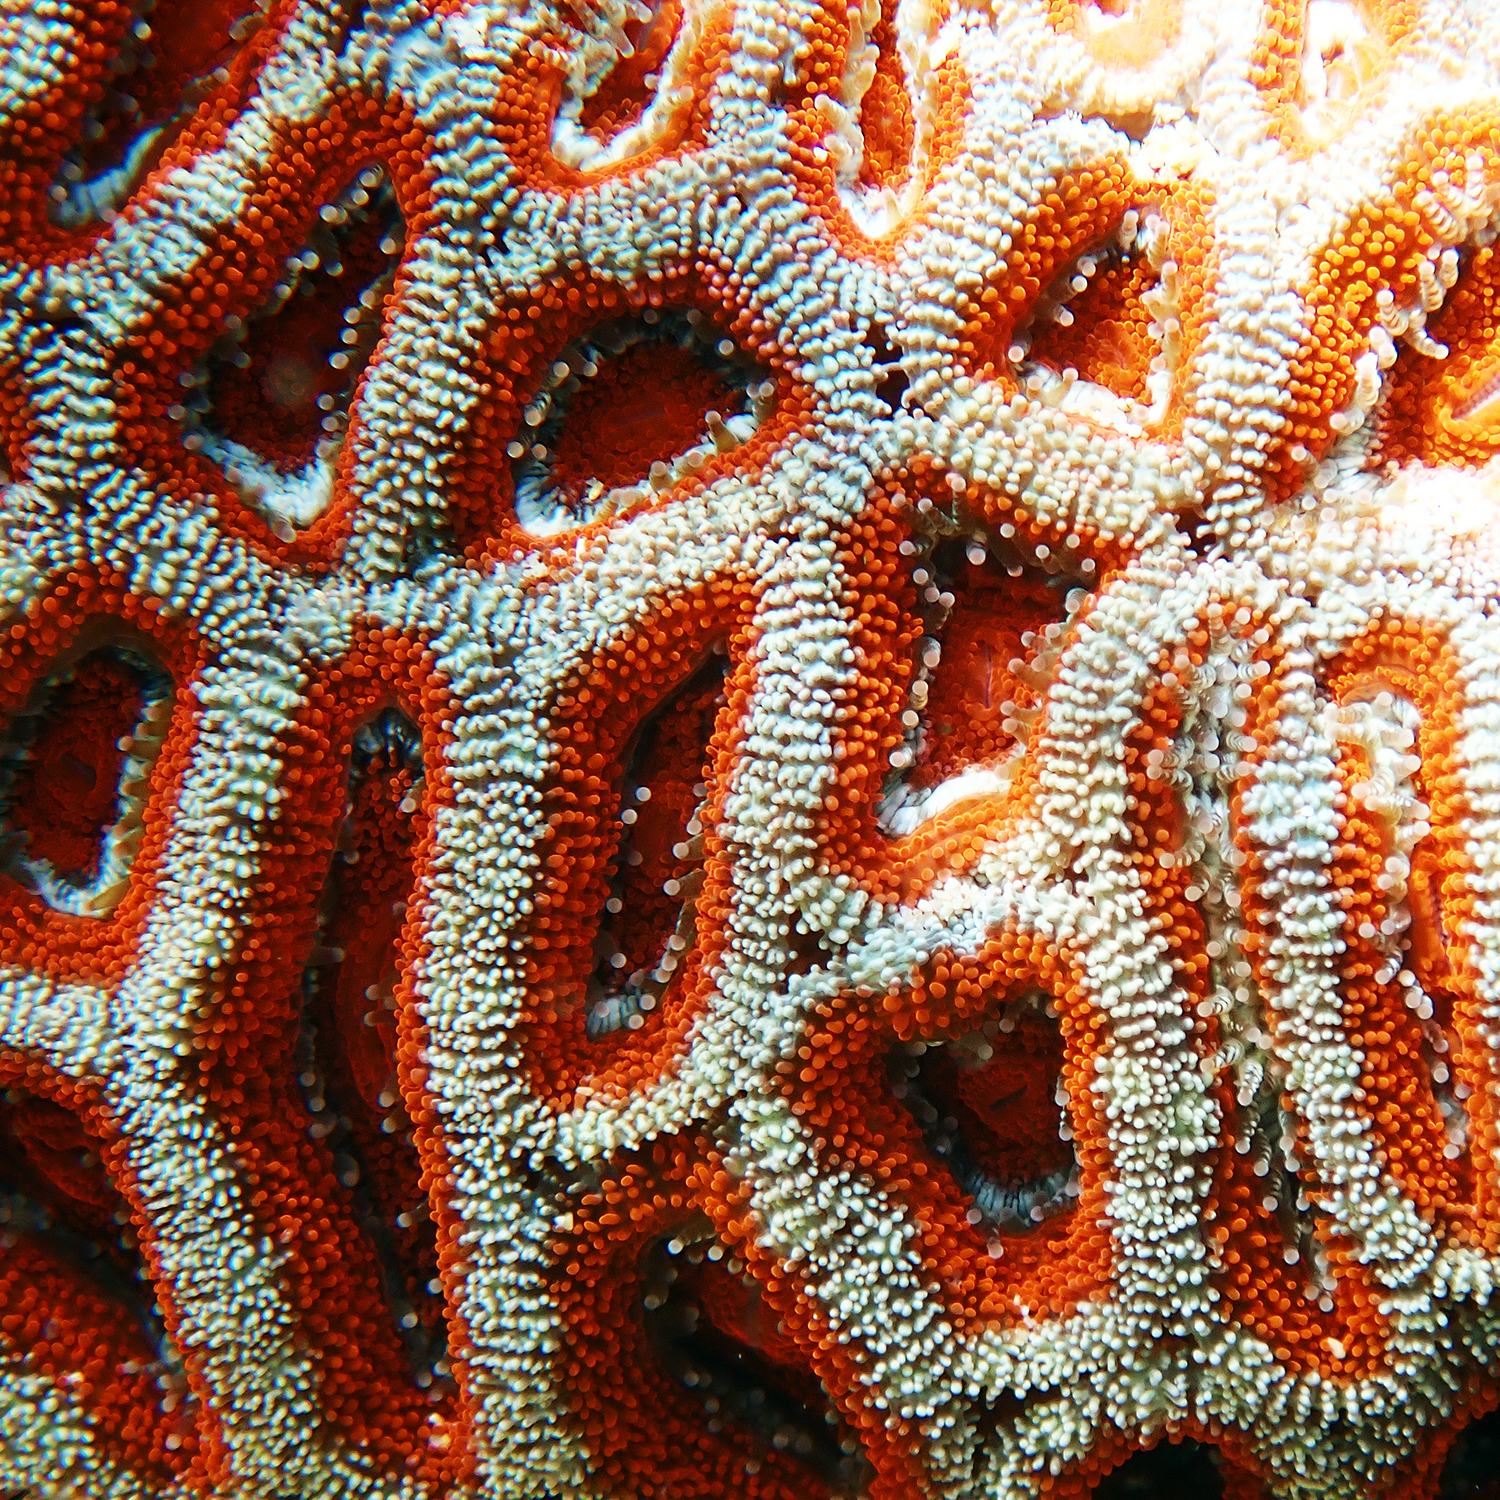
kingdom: Animalia
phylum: Cnidaria
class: Anthozoa
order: Scleractinia
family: Lobophylliidae
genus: Micromussa
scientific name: Micromussa lordhowensis
